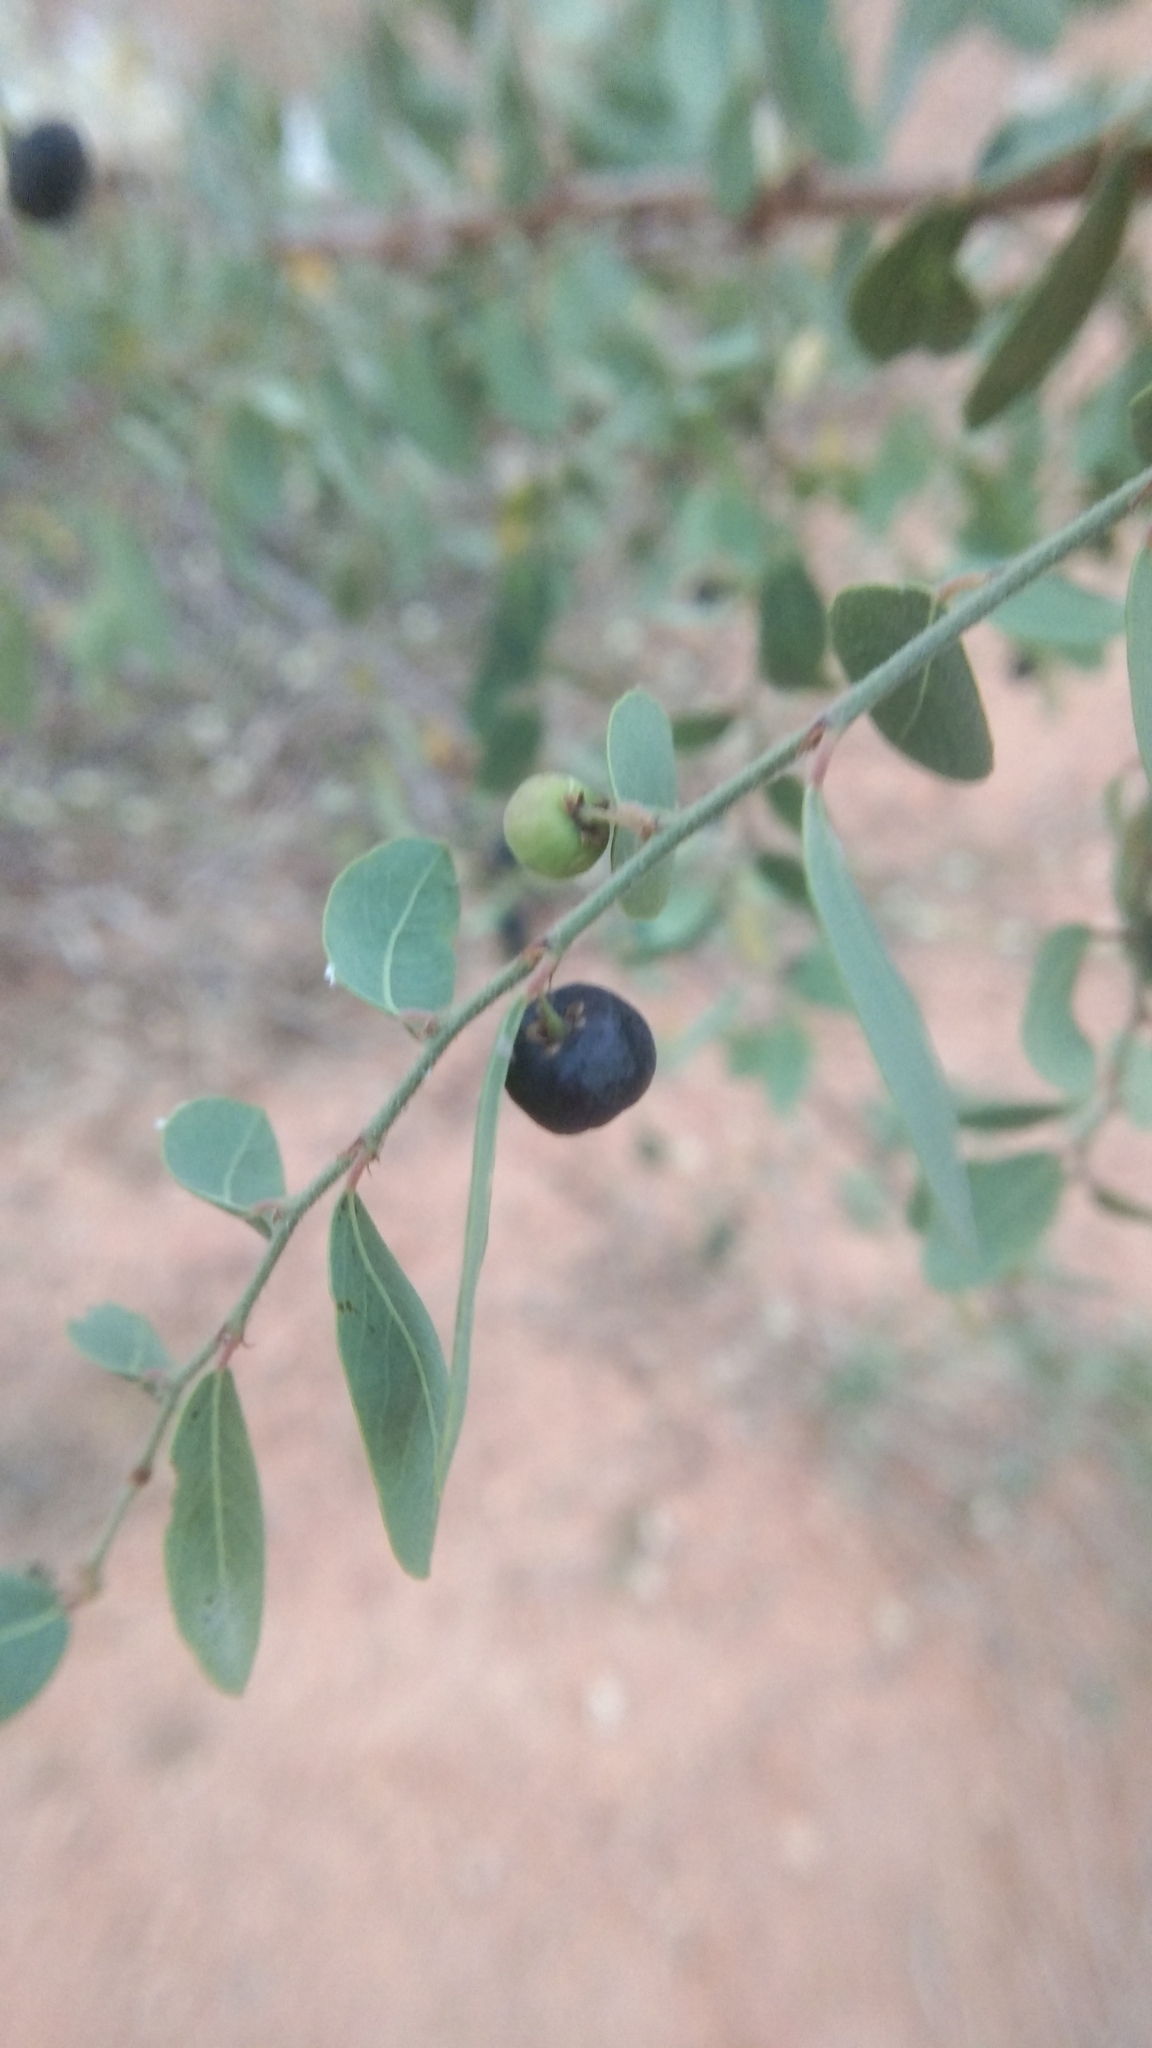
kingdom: Plantae
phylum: Tracheophyta
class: Magnoliopsida
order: Malpighiales
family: Phyllanthaceae
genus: Phyllanthus
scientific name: Phyllanthus reticulatus
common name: Potato bush
